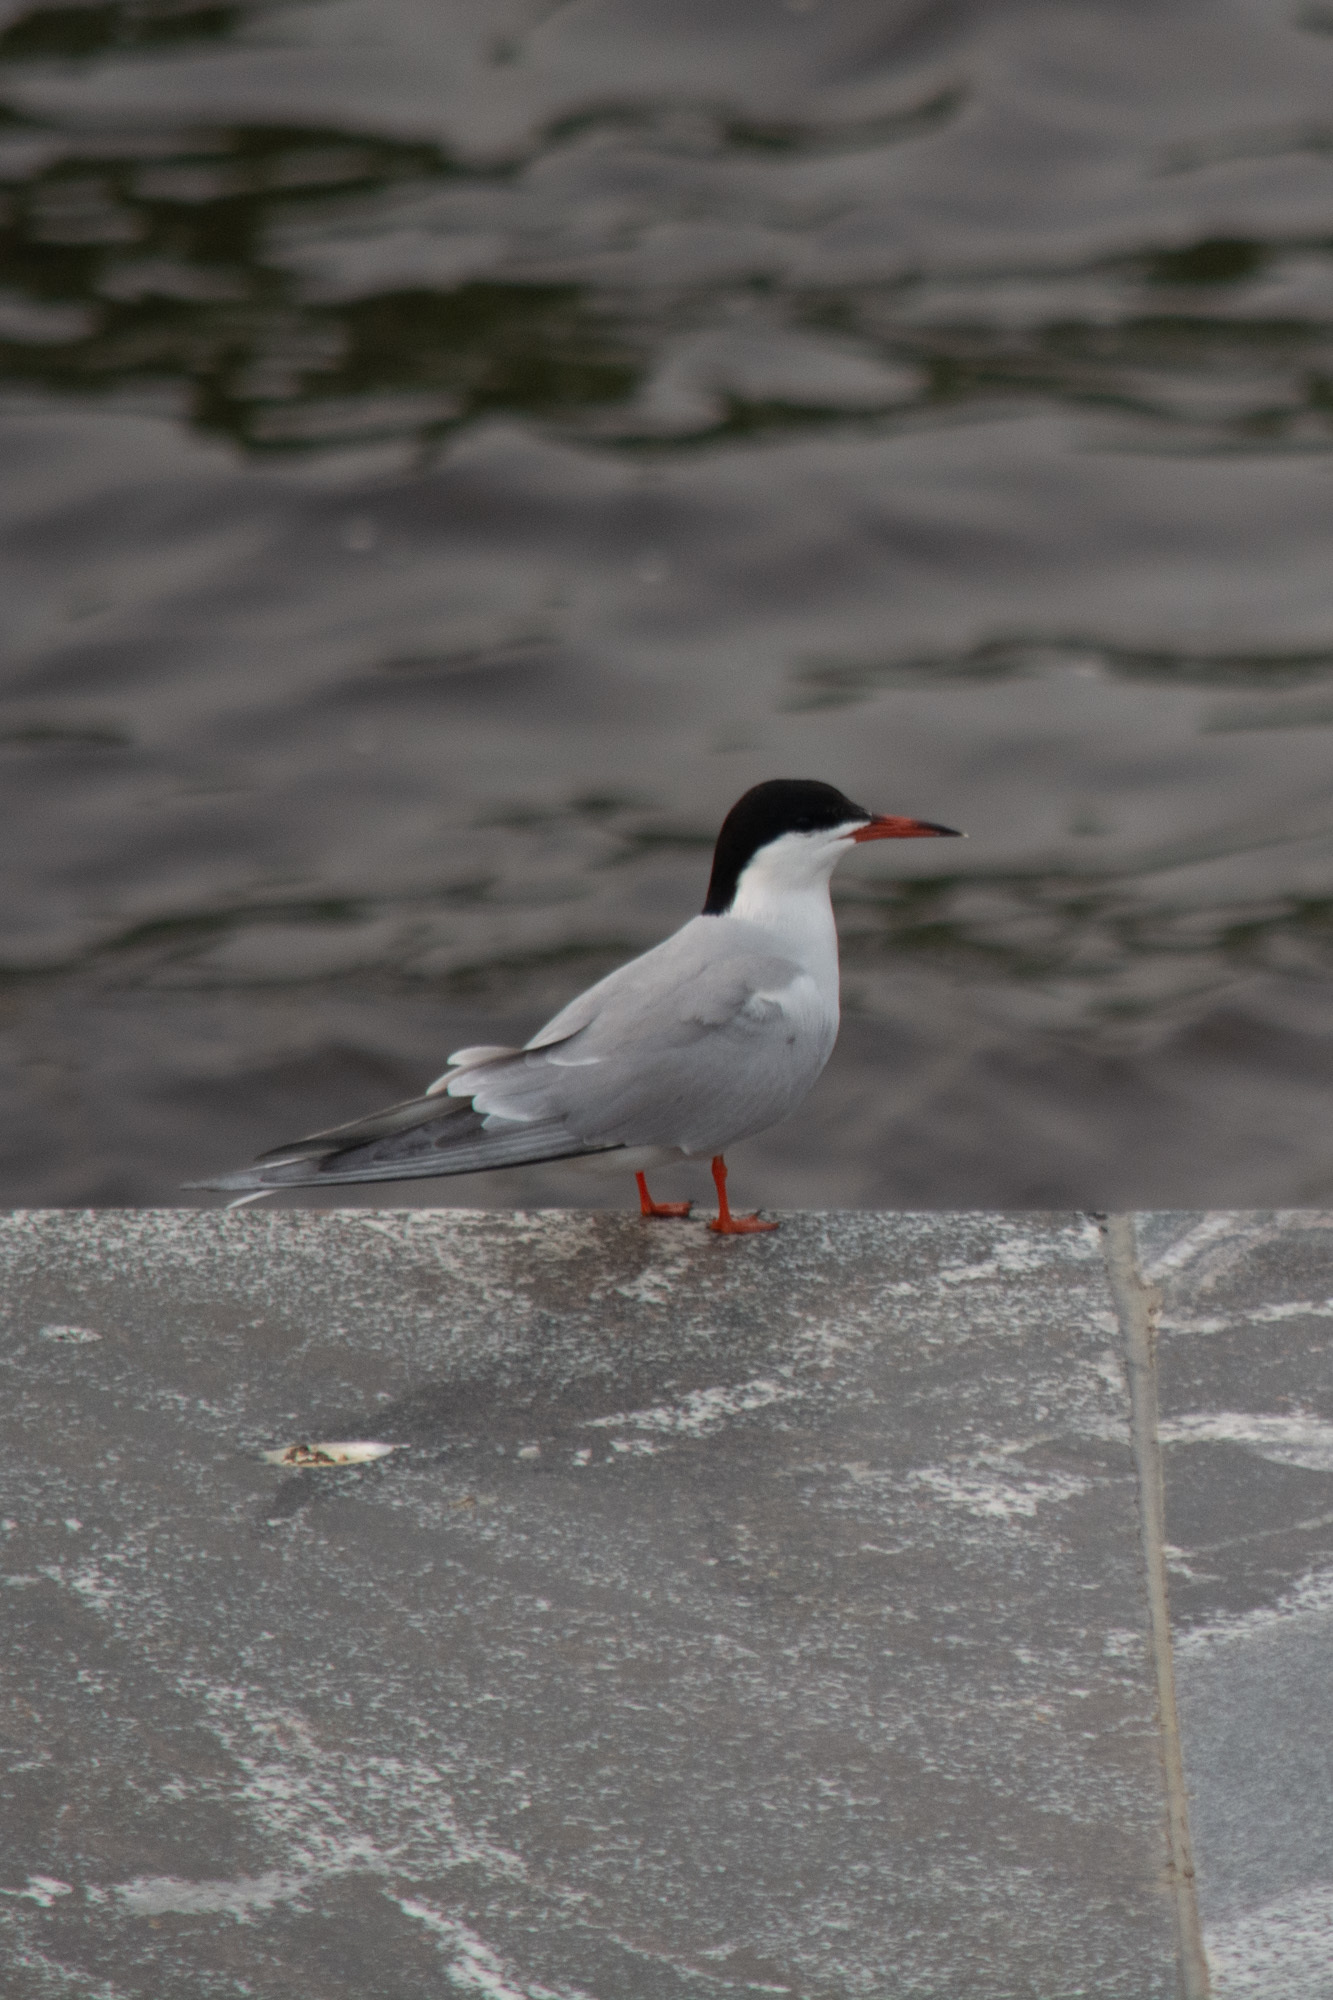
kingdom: Animalia
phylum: Chordata
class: Aves
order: Charadriiformes
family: Laridae
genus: Sterna
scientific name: Sterna hirundo
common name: Common tern
